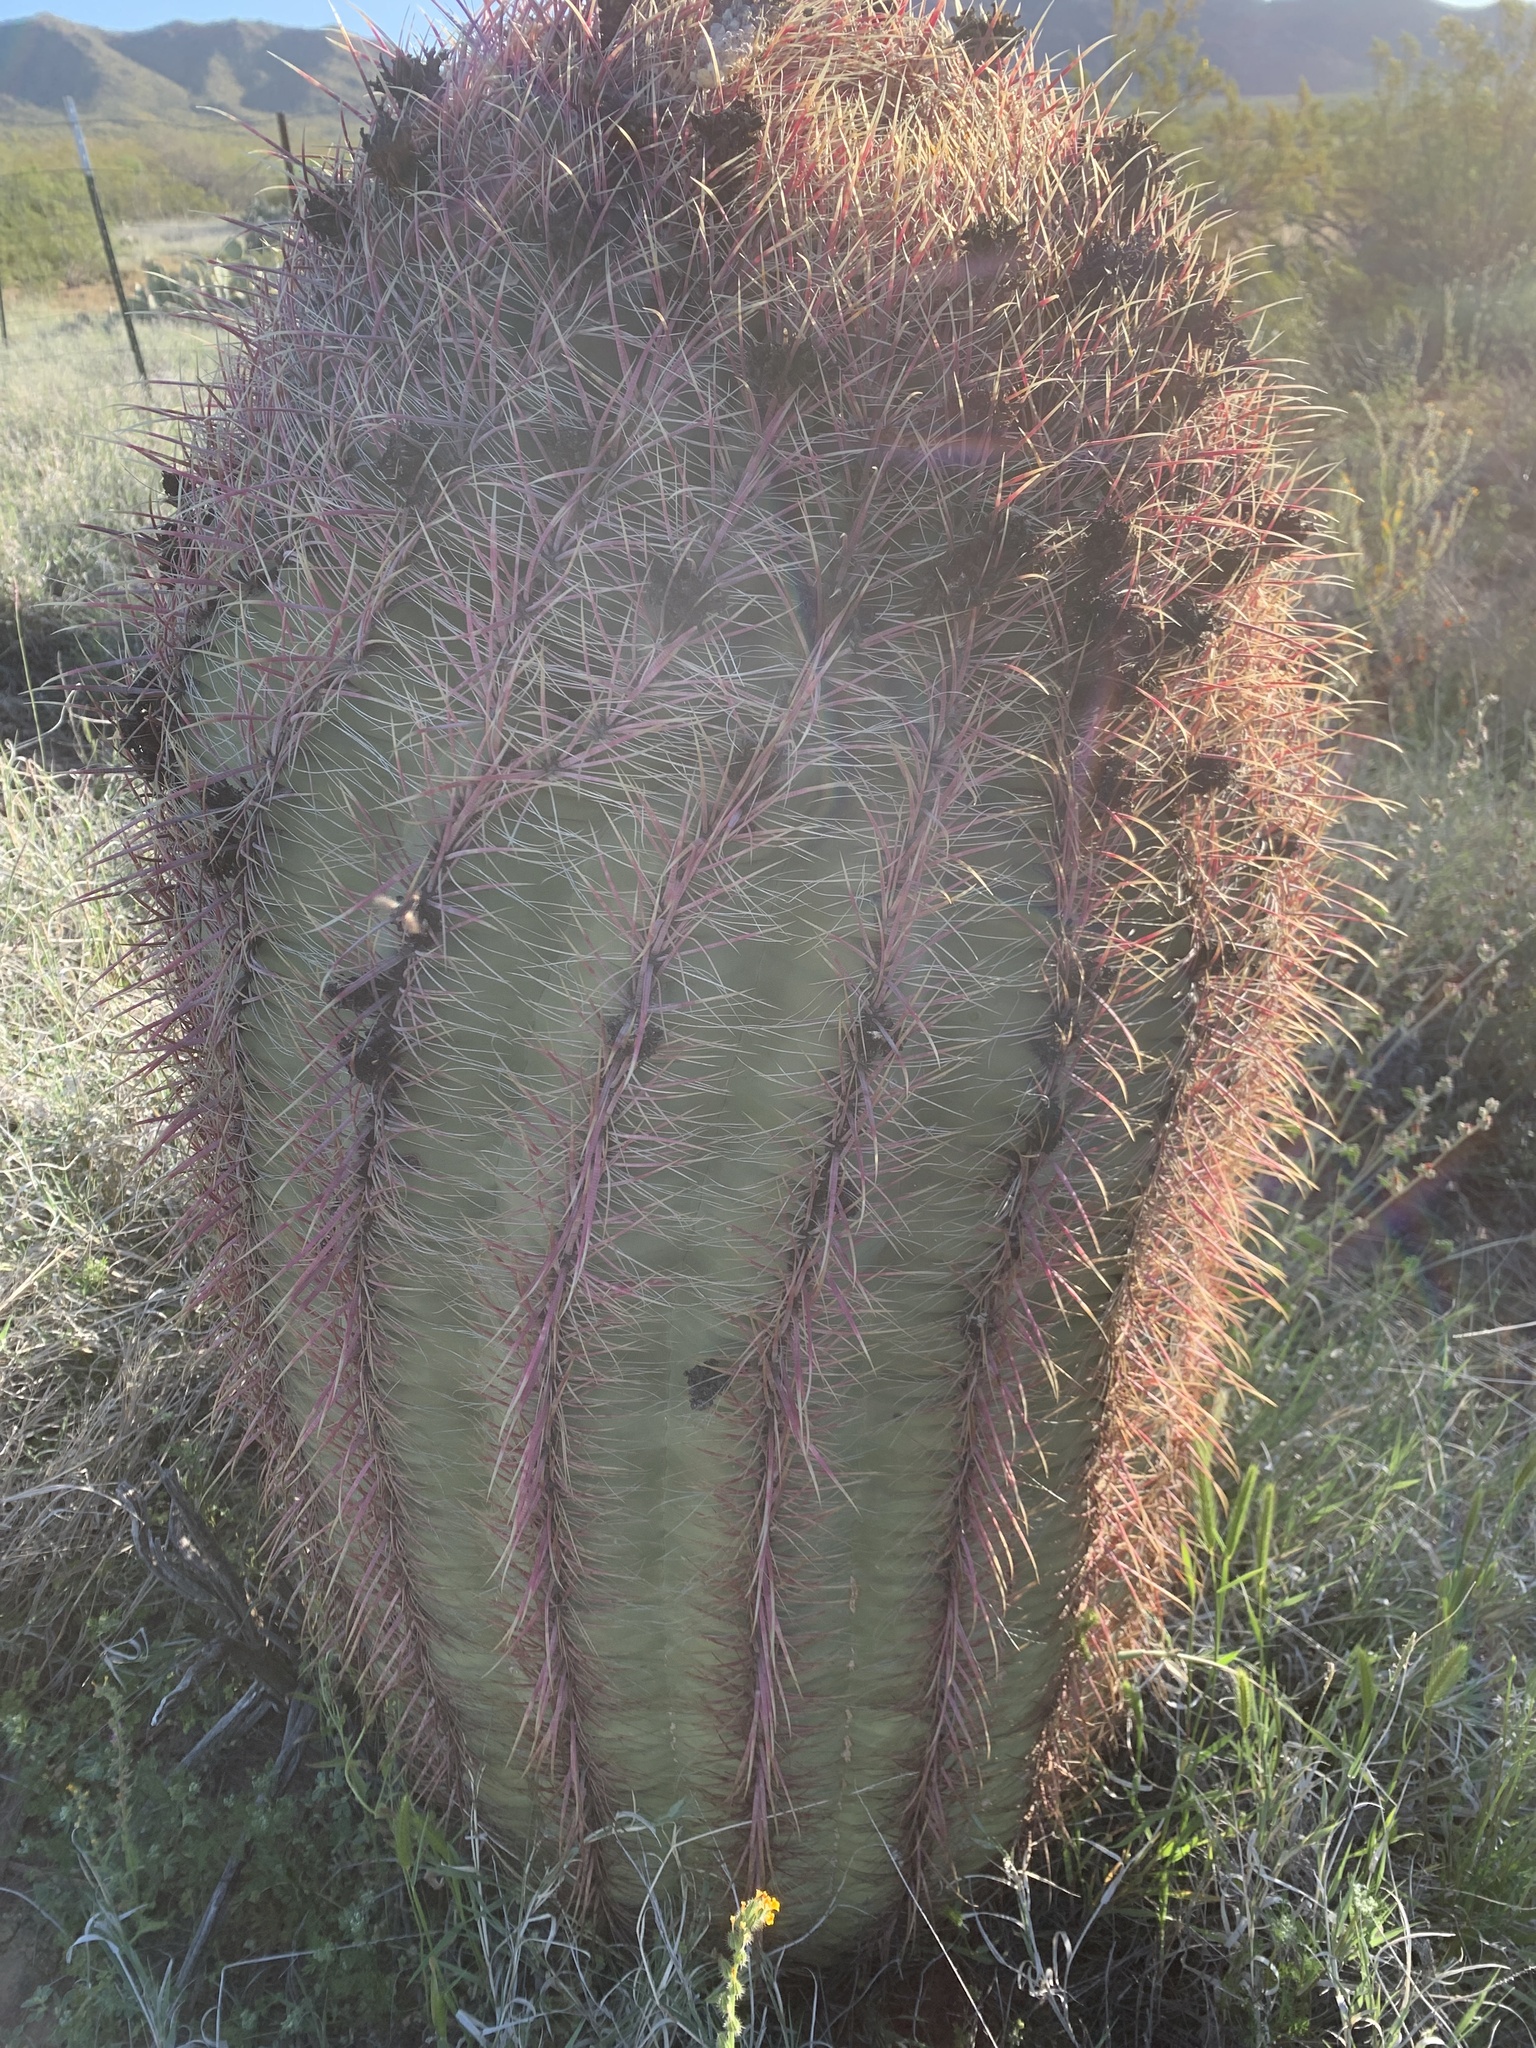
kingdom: Plantae
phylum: Tracheophyta
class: Magnoliopsida
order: Caryophyllales
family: Cactaceae
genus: Ferocactus
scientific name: Ferocactus cylindraceus
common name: California barrel cactus
